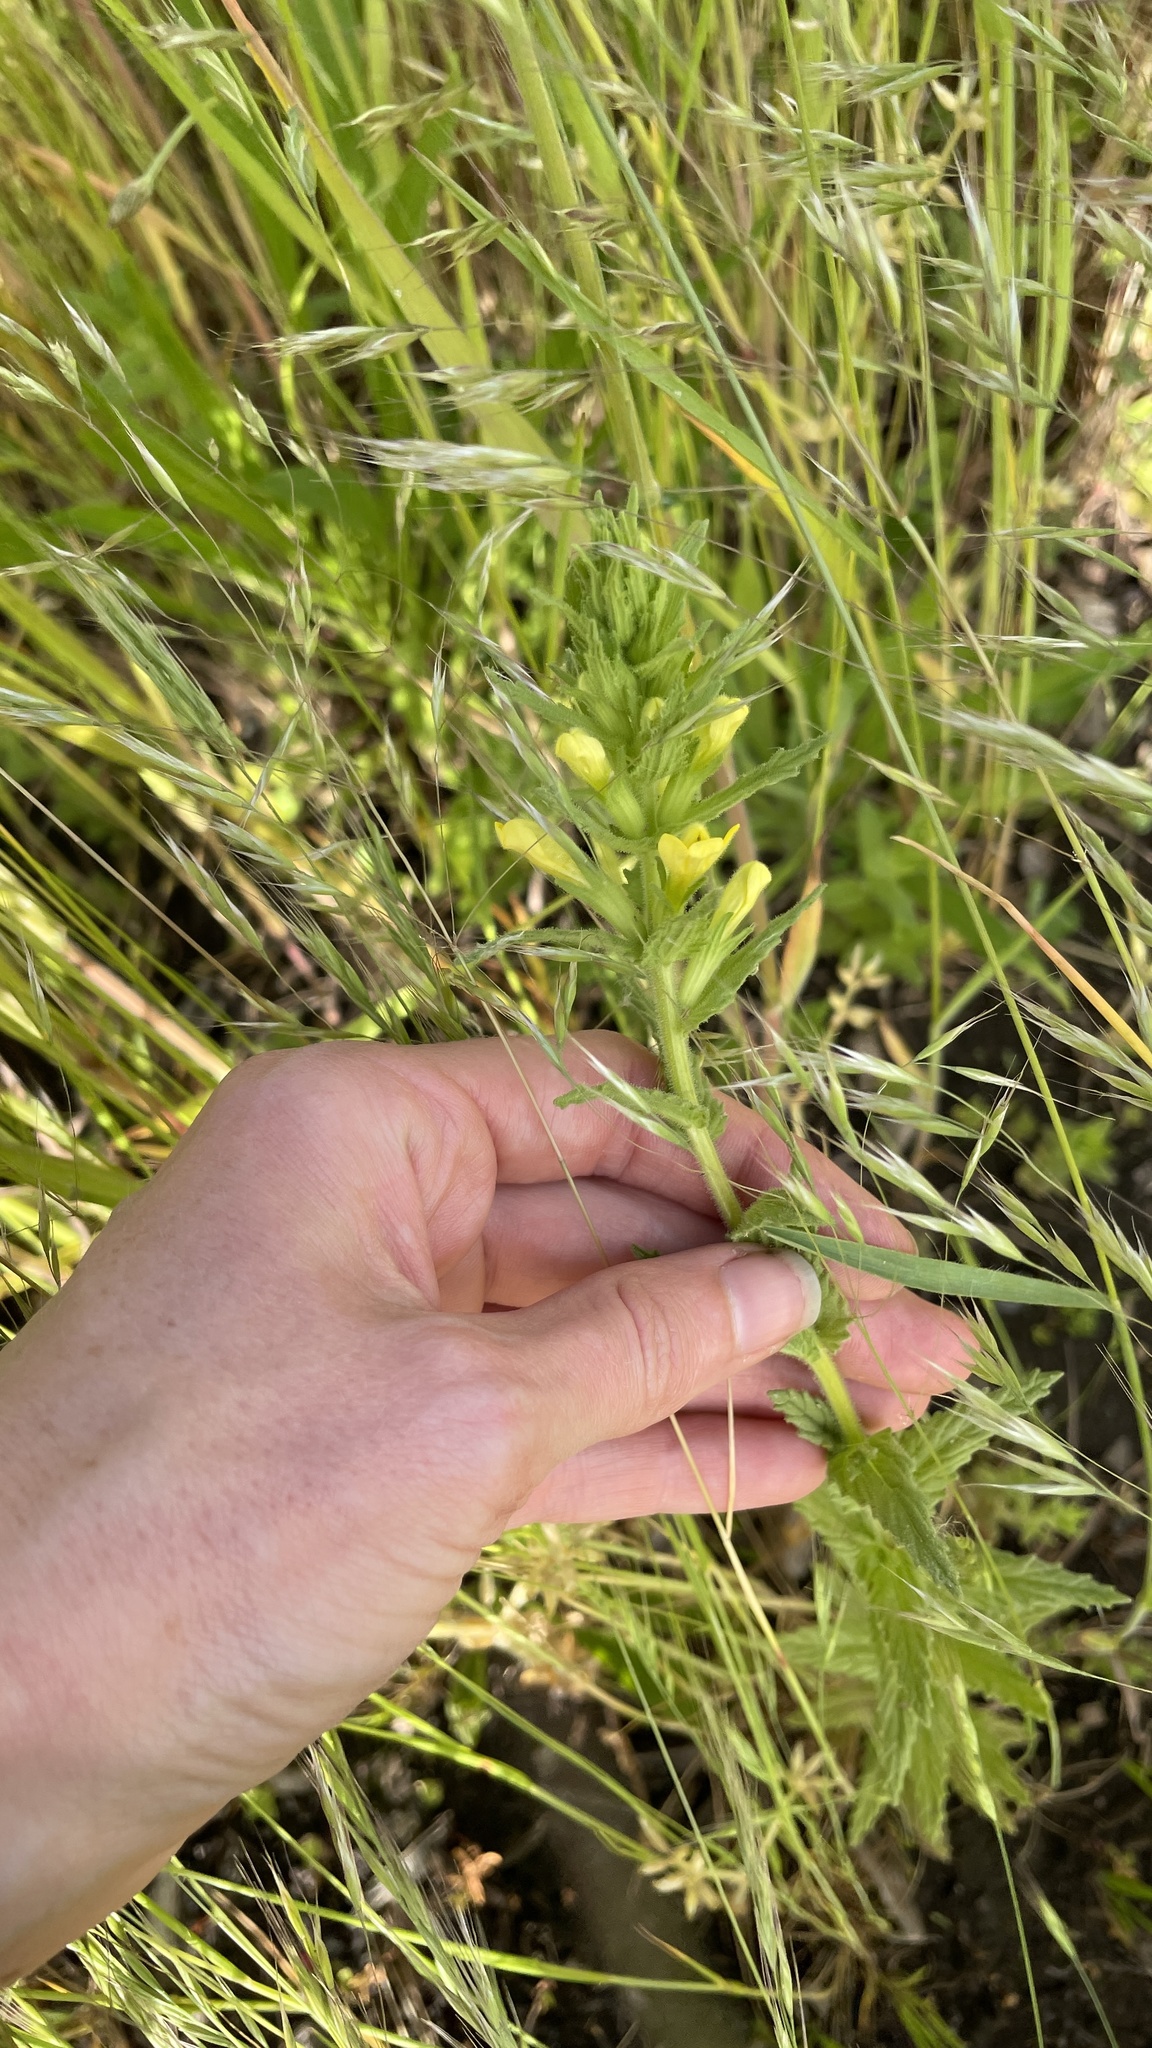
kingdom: Plantae
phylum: Tracheophyta
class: Magnoliopsida
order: Lamiales
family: Orobanchaceae
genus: Bellardia
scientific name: Bellardia viscosa
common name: Sticky parentucellia
